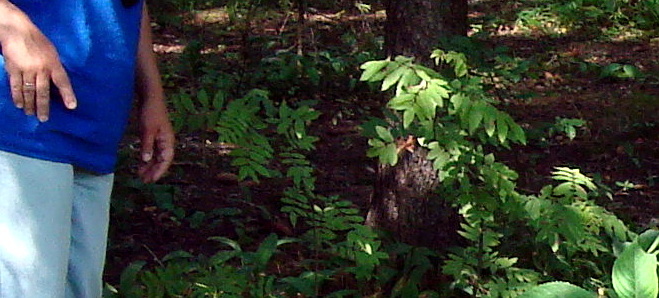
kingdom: Plantae
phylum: Tracheophyta
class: Magnoliopsida
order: Rosales
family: Rosaceae
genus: Sorbus
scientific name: Sorbus aucuparia
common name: Rowan
